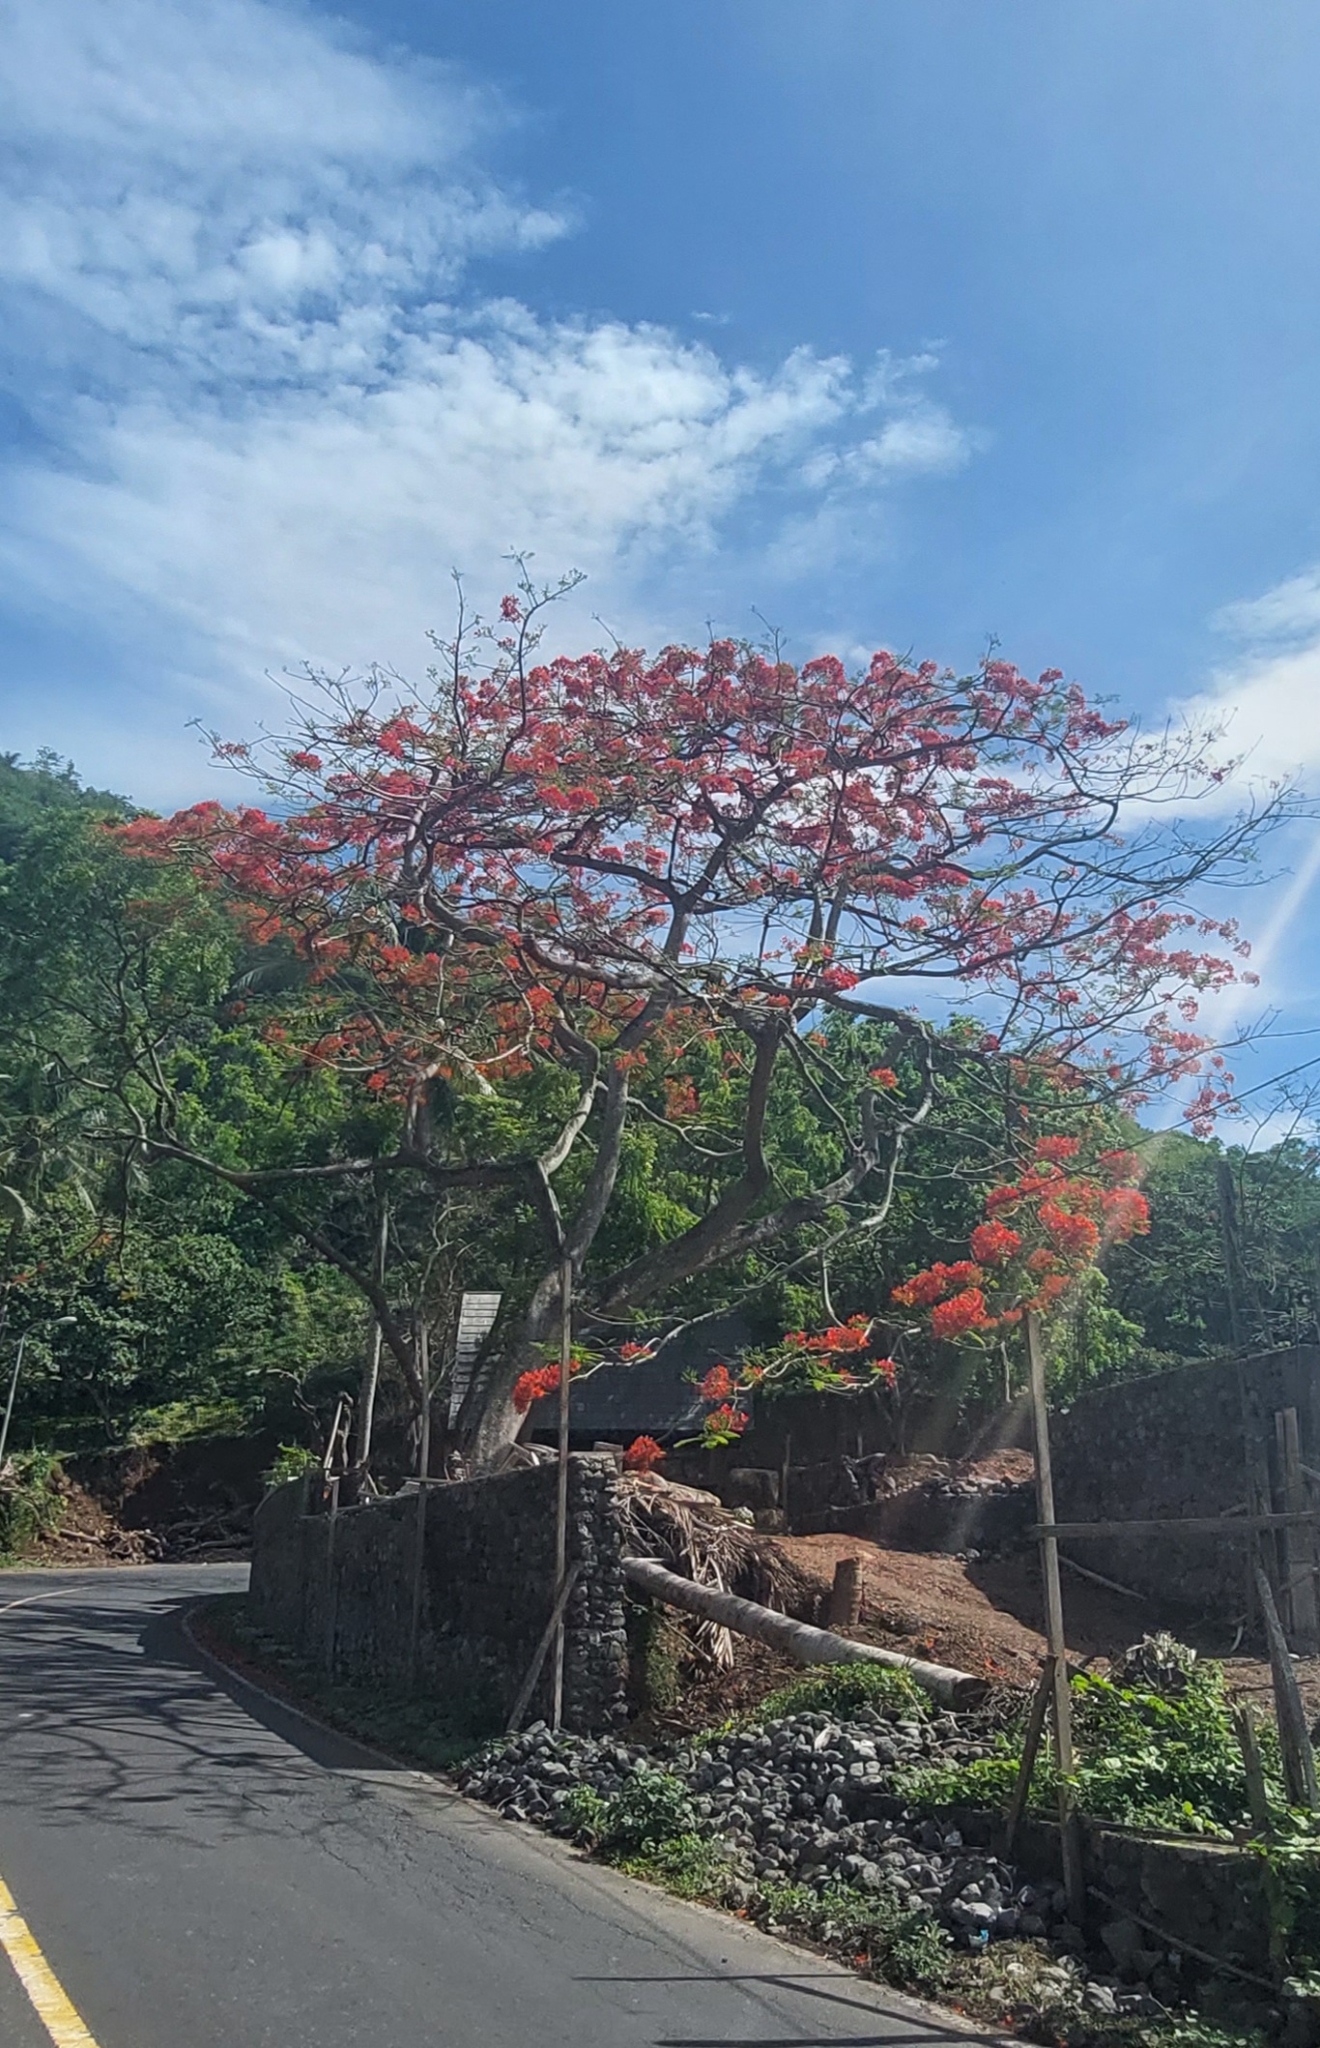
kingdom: Plantae
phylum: Tracheophyta
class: Magnoliopsida
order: Fabales
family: Fabaceae
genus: Delonix
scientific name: Delonix regia
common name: Royal poinciana
